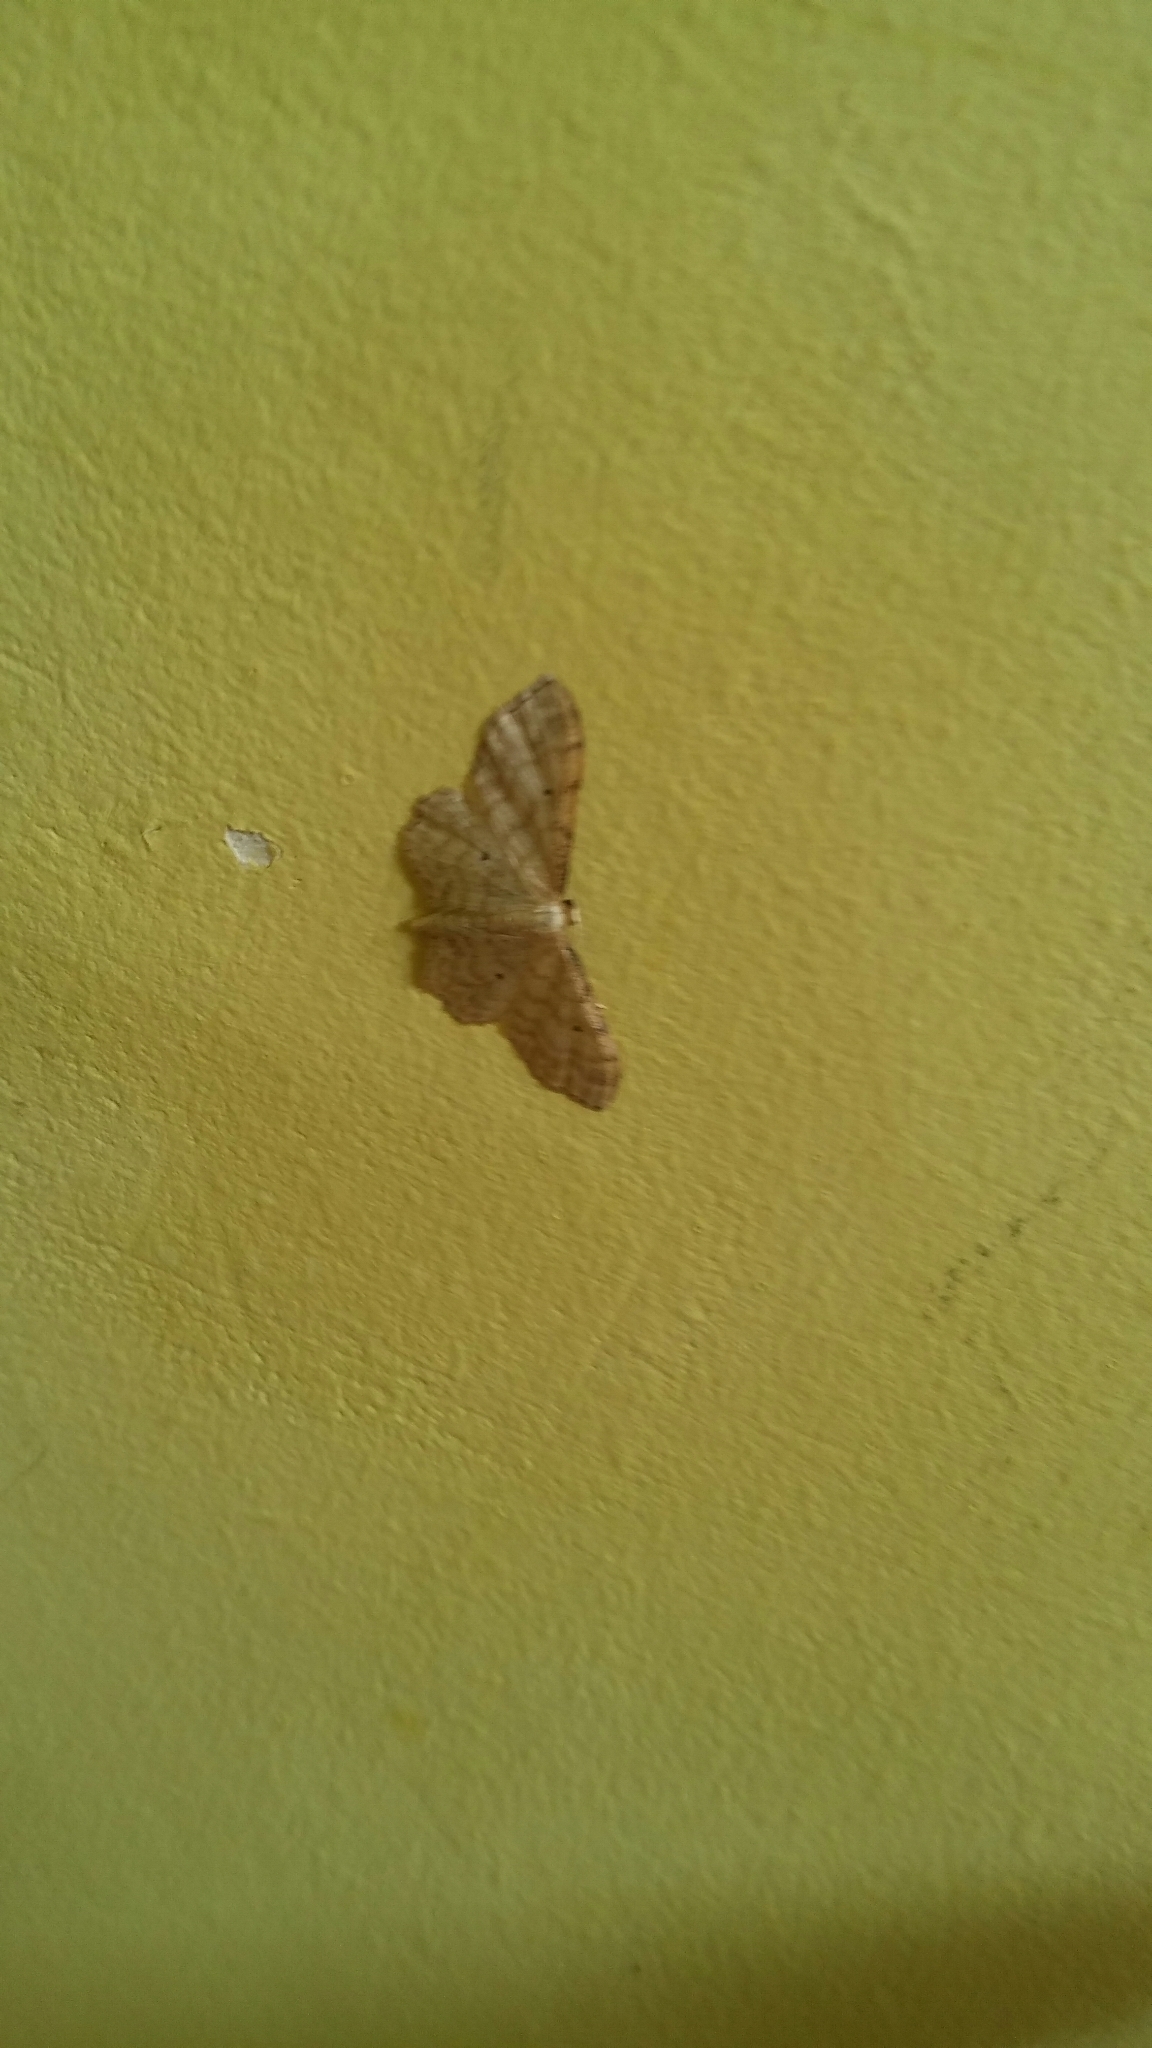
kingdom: Animalia
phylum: Arthropoda
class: Insecta
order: Lepidoptera
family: Geometridae
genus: Idaea
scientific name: Idaea fuscovenosa
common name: Dwarf cream wave
